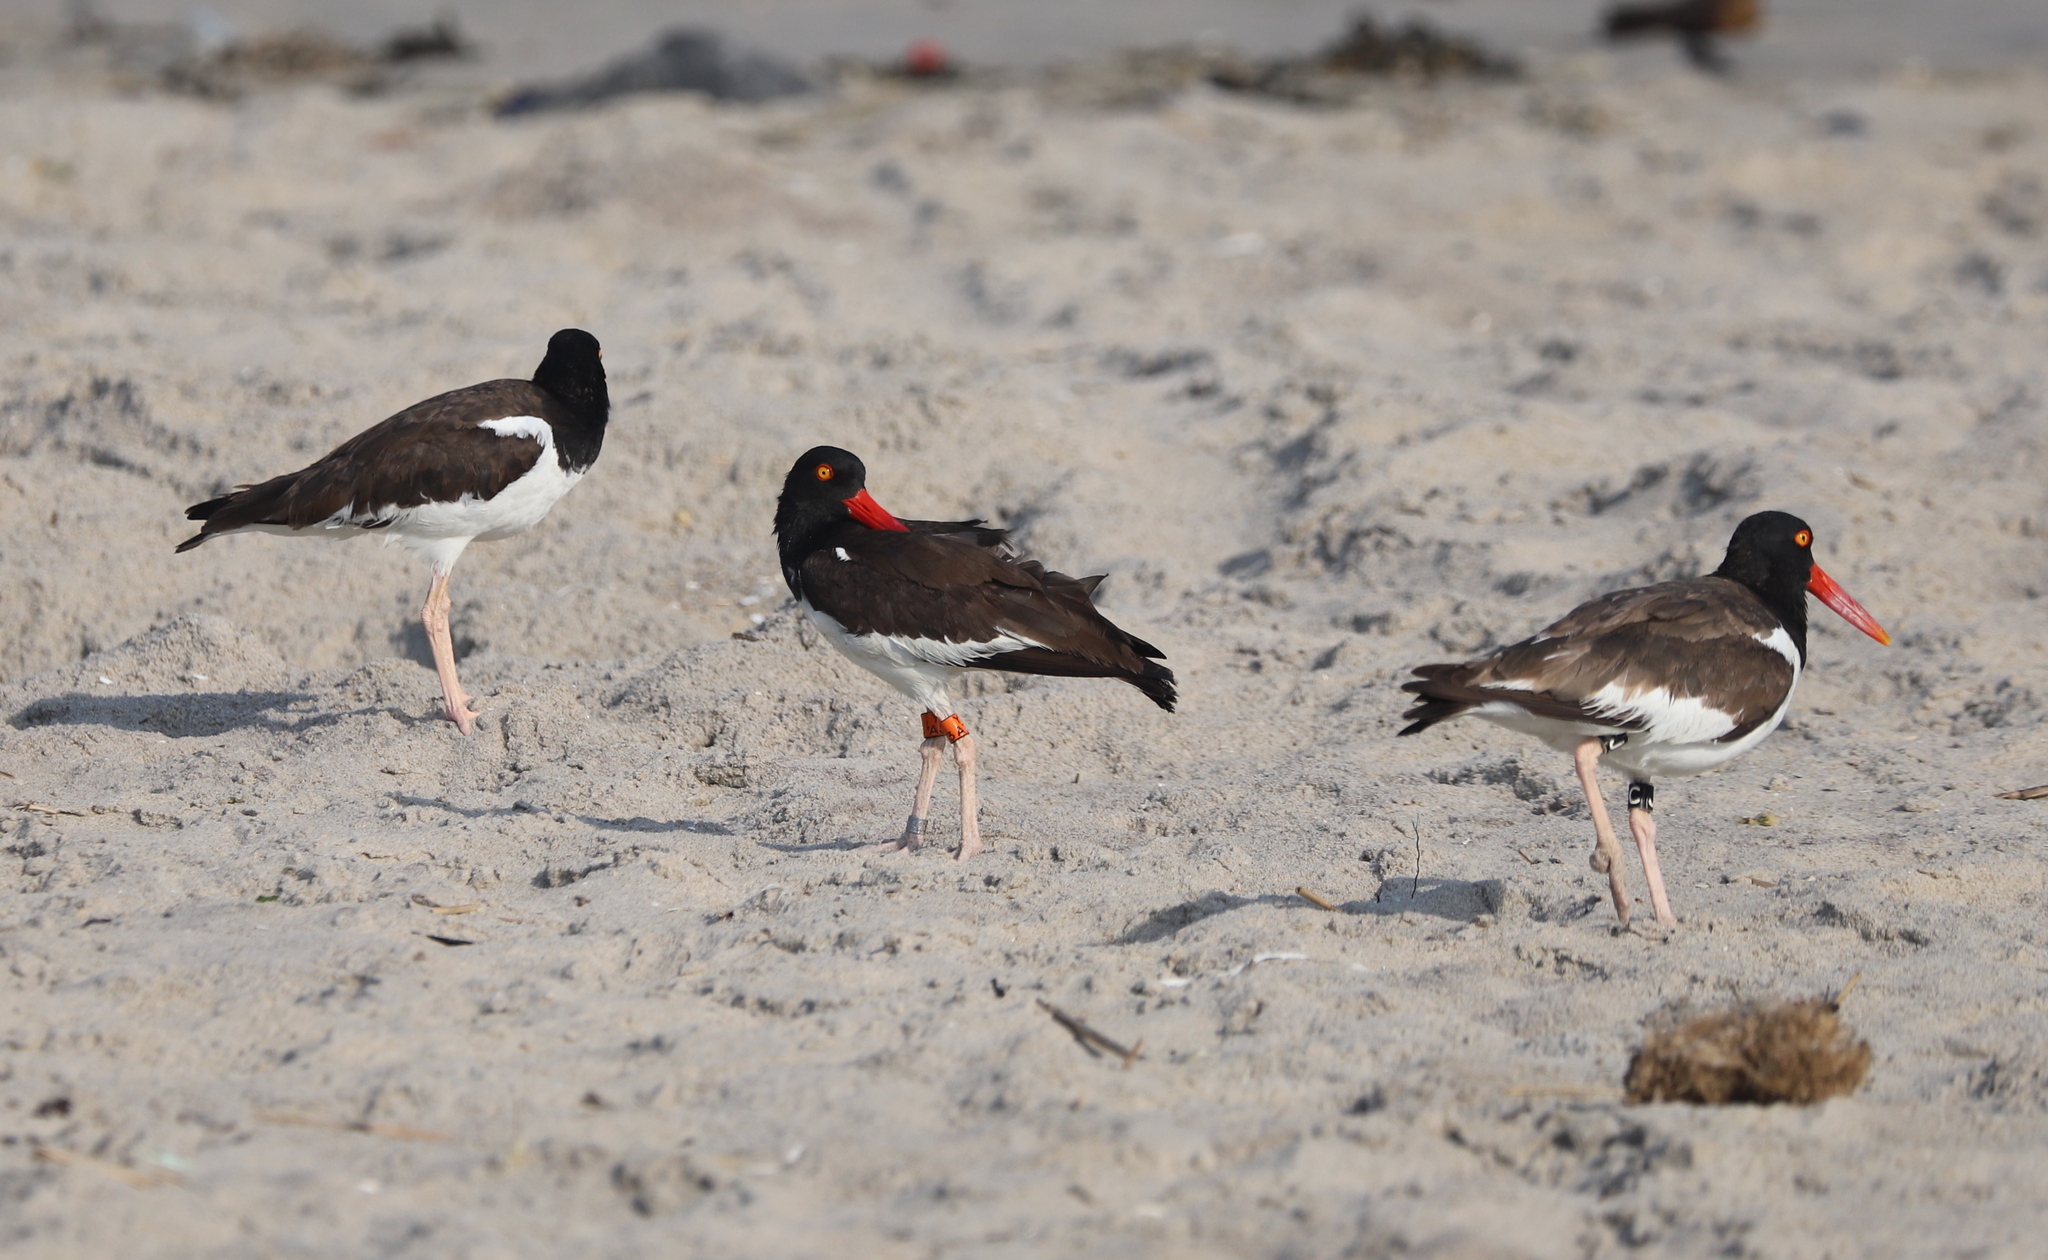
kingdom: Animalia
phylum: Chordata
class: Aves
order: Charadriiformes
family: Haematopodidae
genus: Haematopus
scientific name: Haematopus palliatus
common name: American oystercatcher
